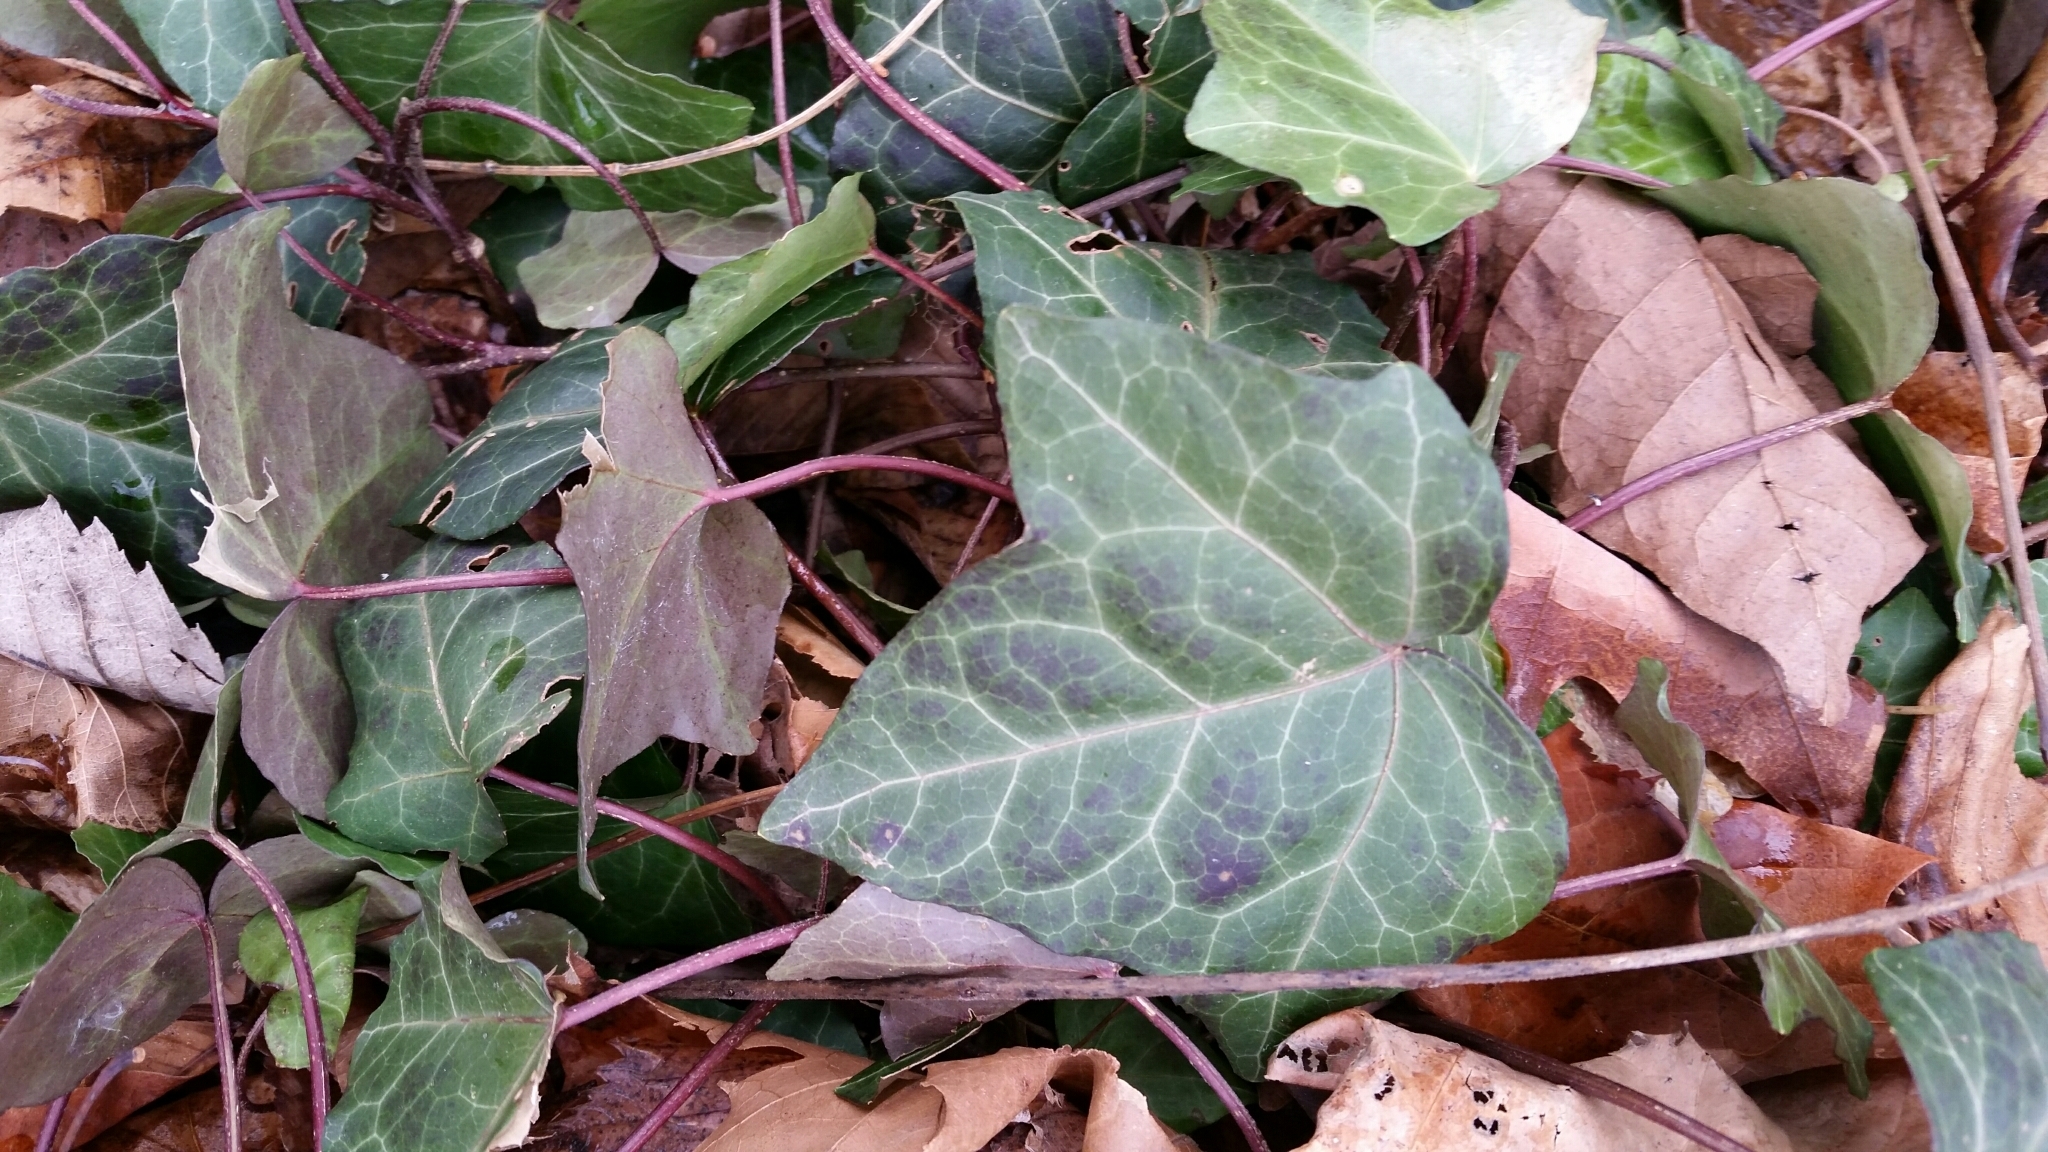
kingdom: Plantae
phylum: Tracheophyta
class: Magnoliopsida
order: Apiales
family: Araliaceae
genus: Hedera
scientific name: Hedera helix
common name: Ivy
